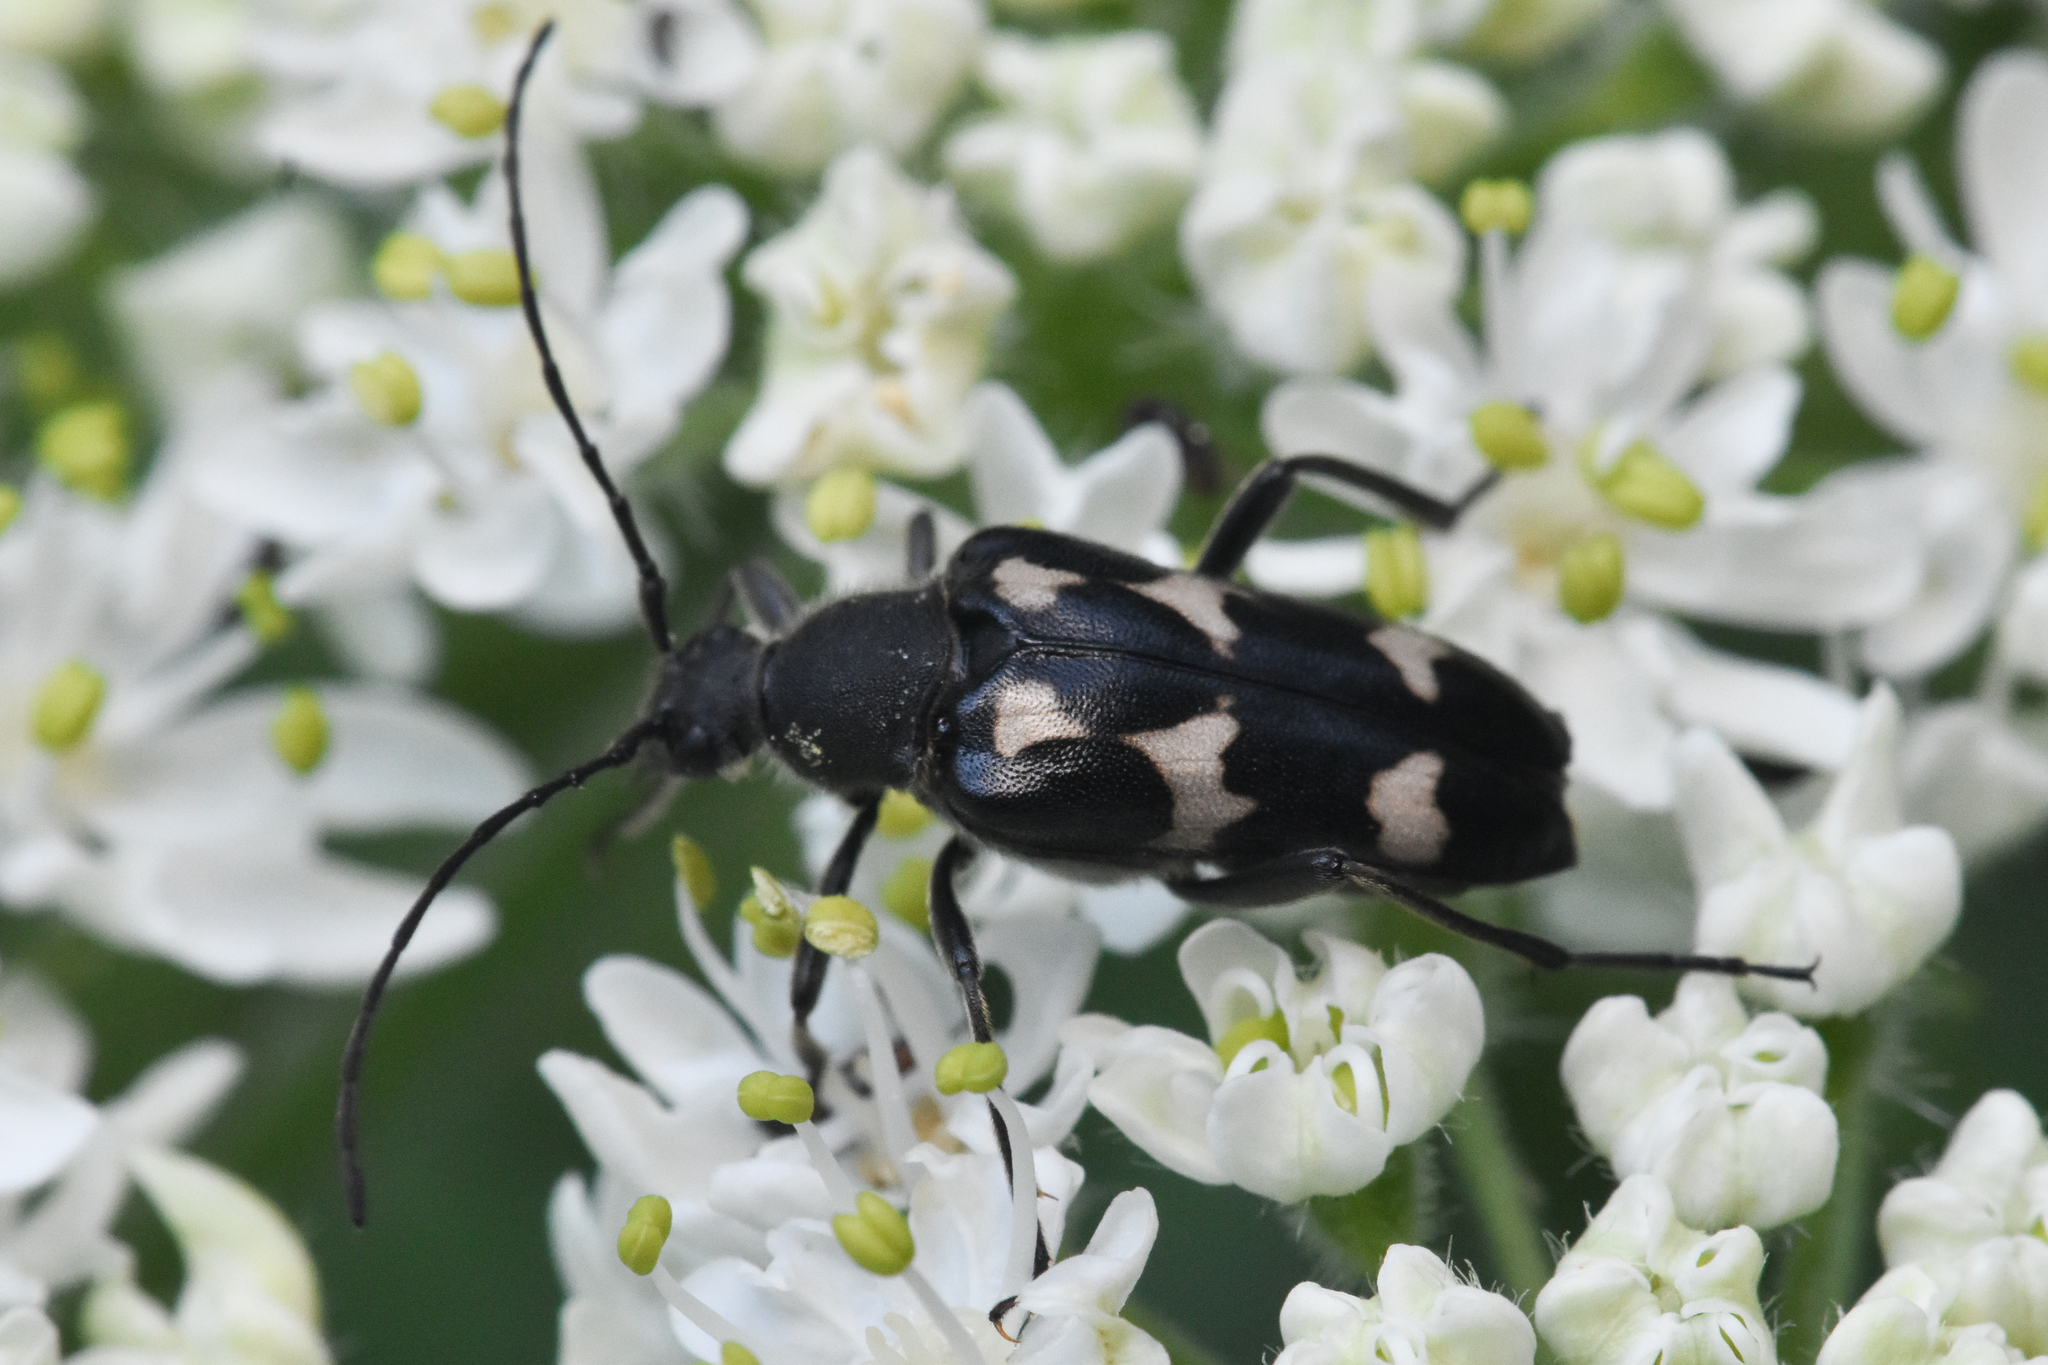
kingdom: Animalia
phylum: Arthropoda
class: Insecta
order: Coleoptera
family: Cerambycidae
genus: Judolia
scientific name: Judolia montivagans
